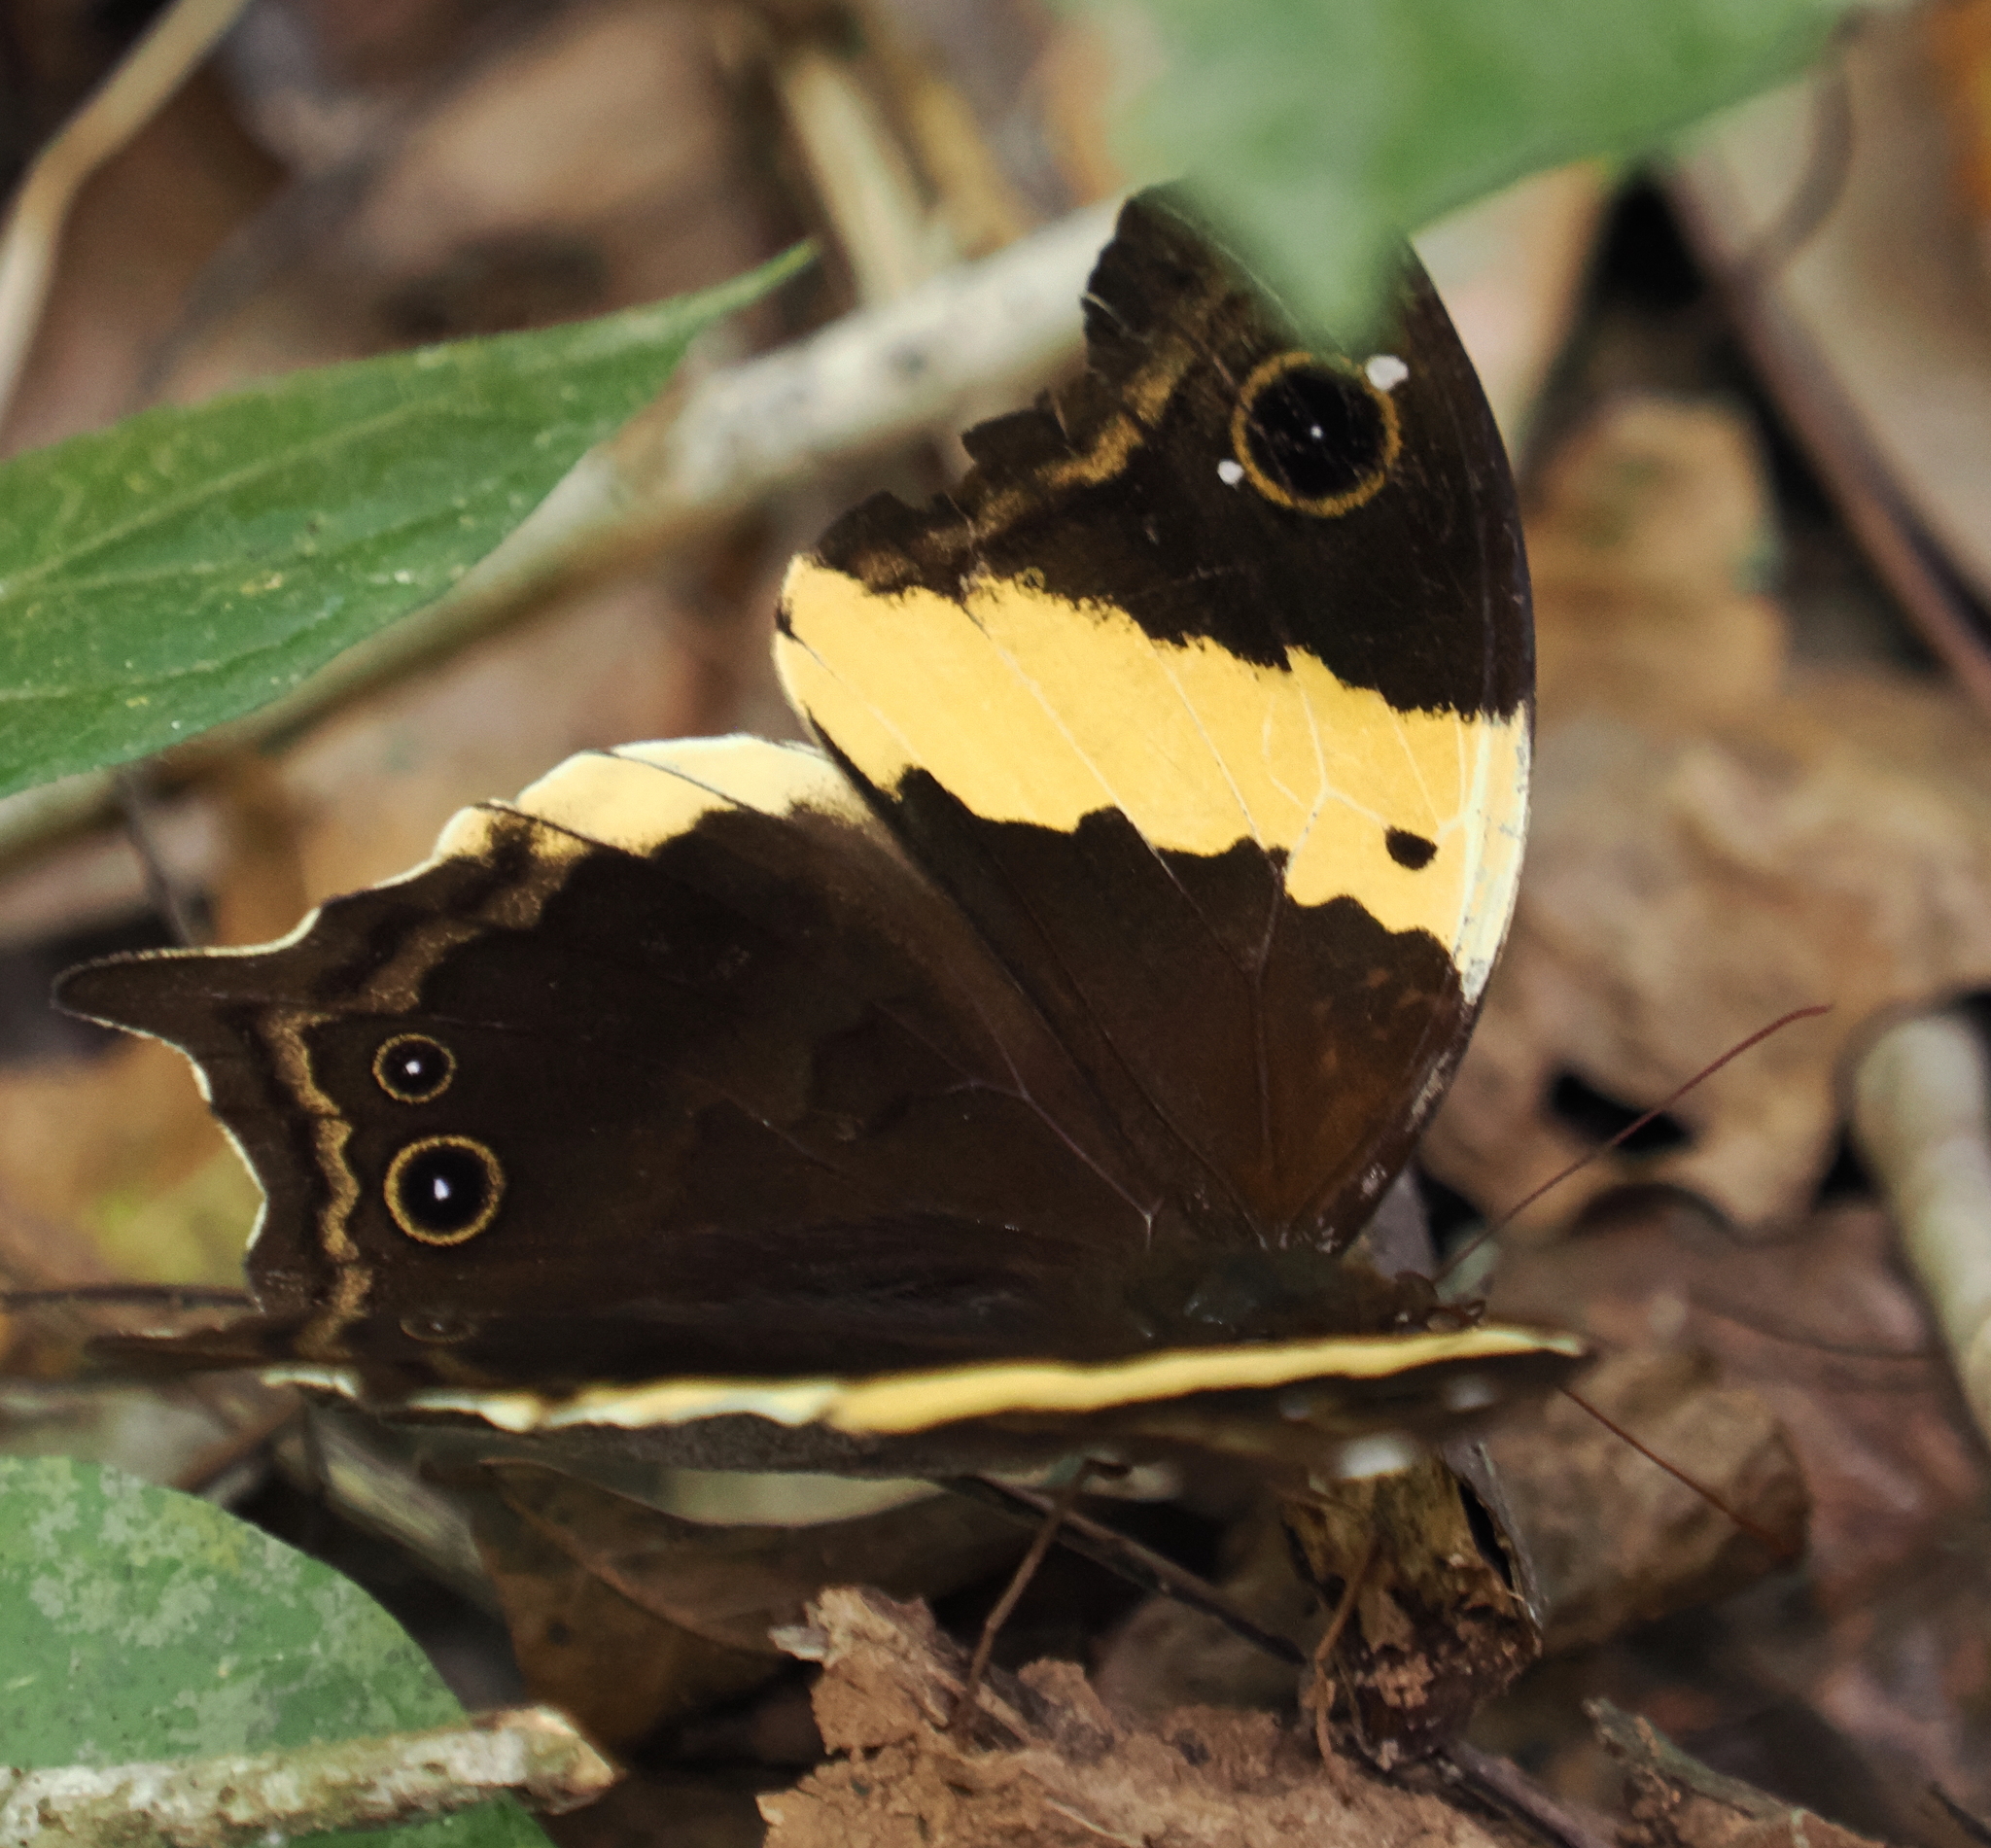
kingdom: Animalia
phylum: Arthropoda
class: Insecta
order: Lepidoptera
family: Nymphalidae
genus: Neorina
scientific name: Neorina crishna
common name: Tailed yellow owl
